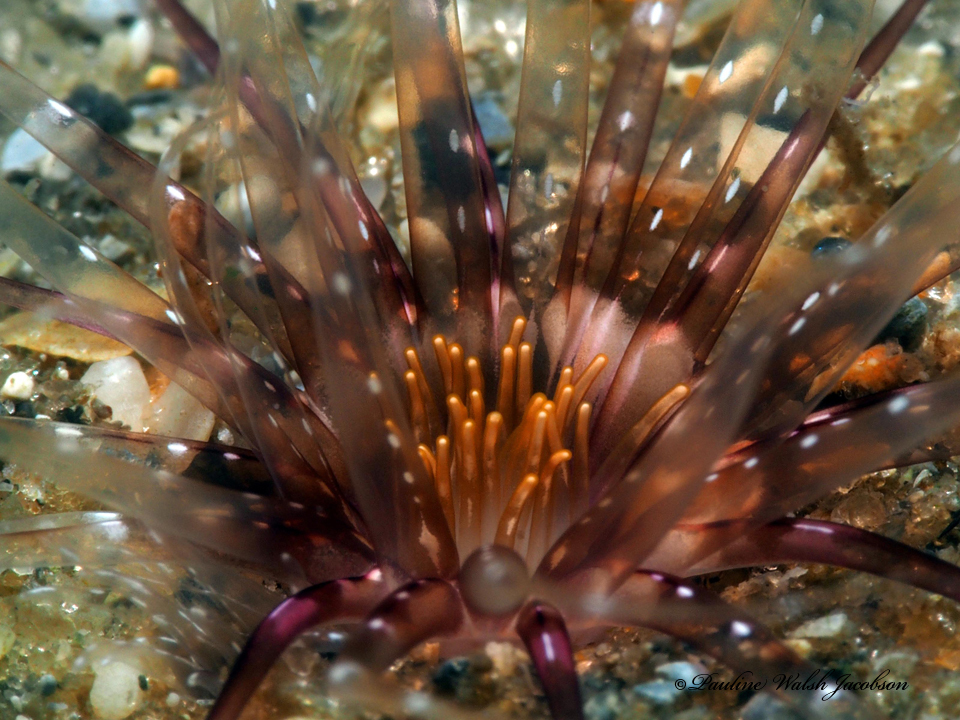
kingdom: Animalia
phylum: Cnidaria
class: Anthozoa
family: Cerianthidae
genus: Ceriantheopsis
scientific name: Ceriantheopsis americana
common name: American tube-dwelling anemone
